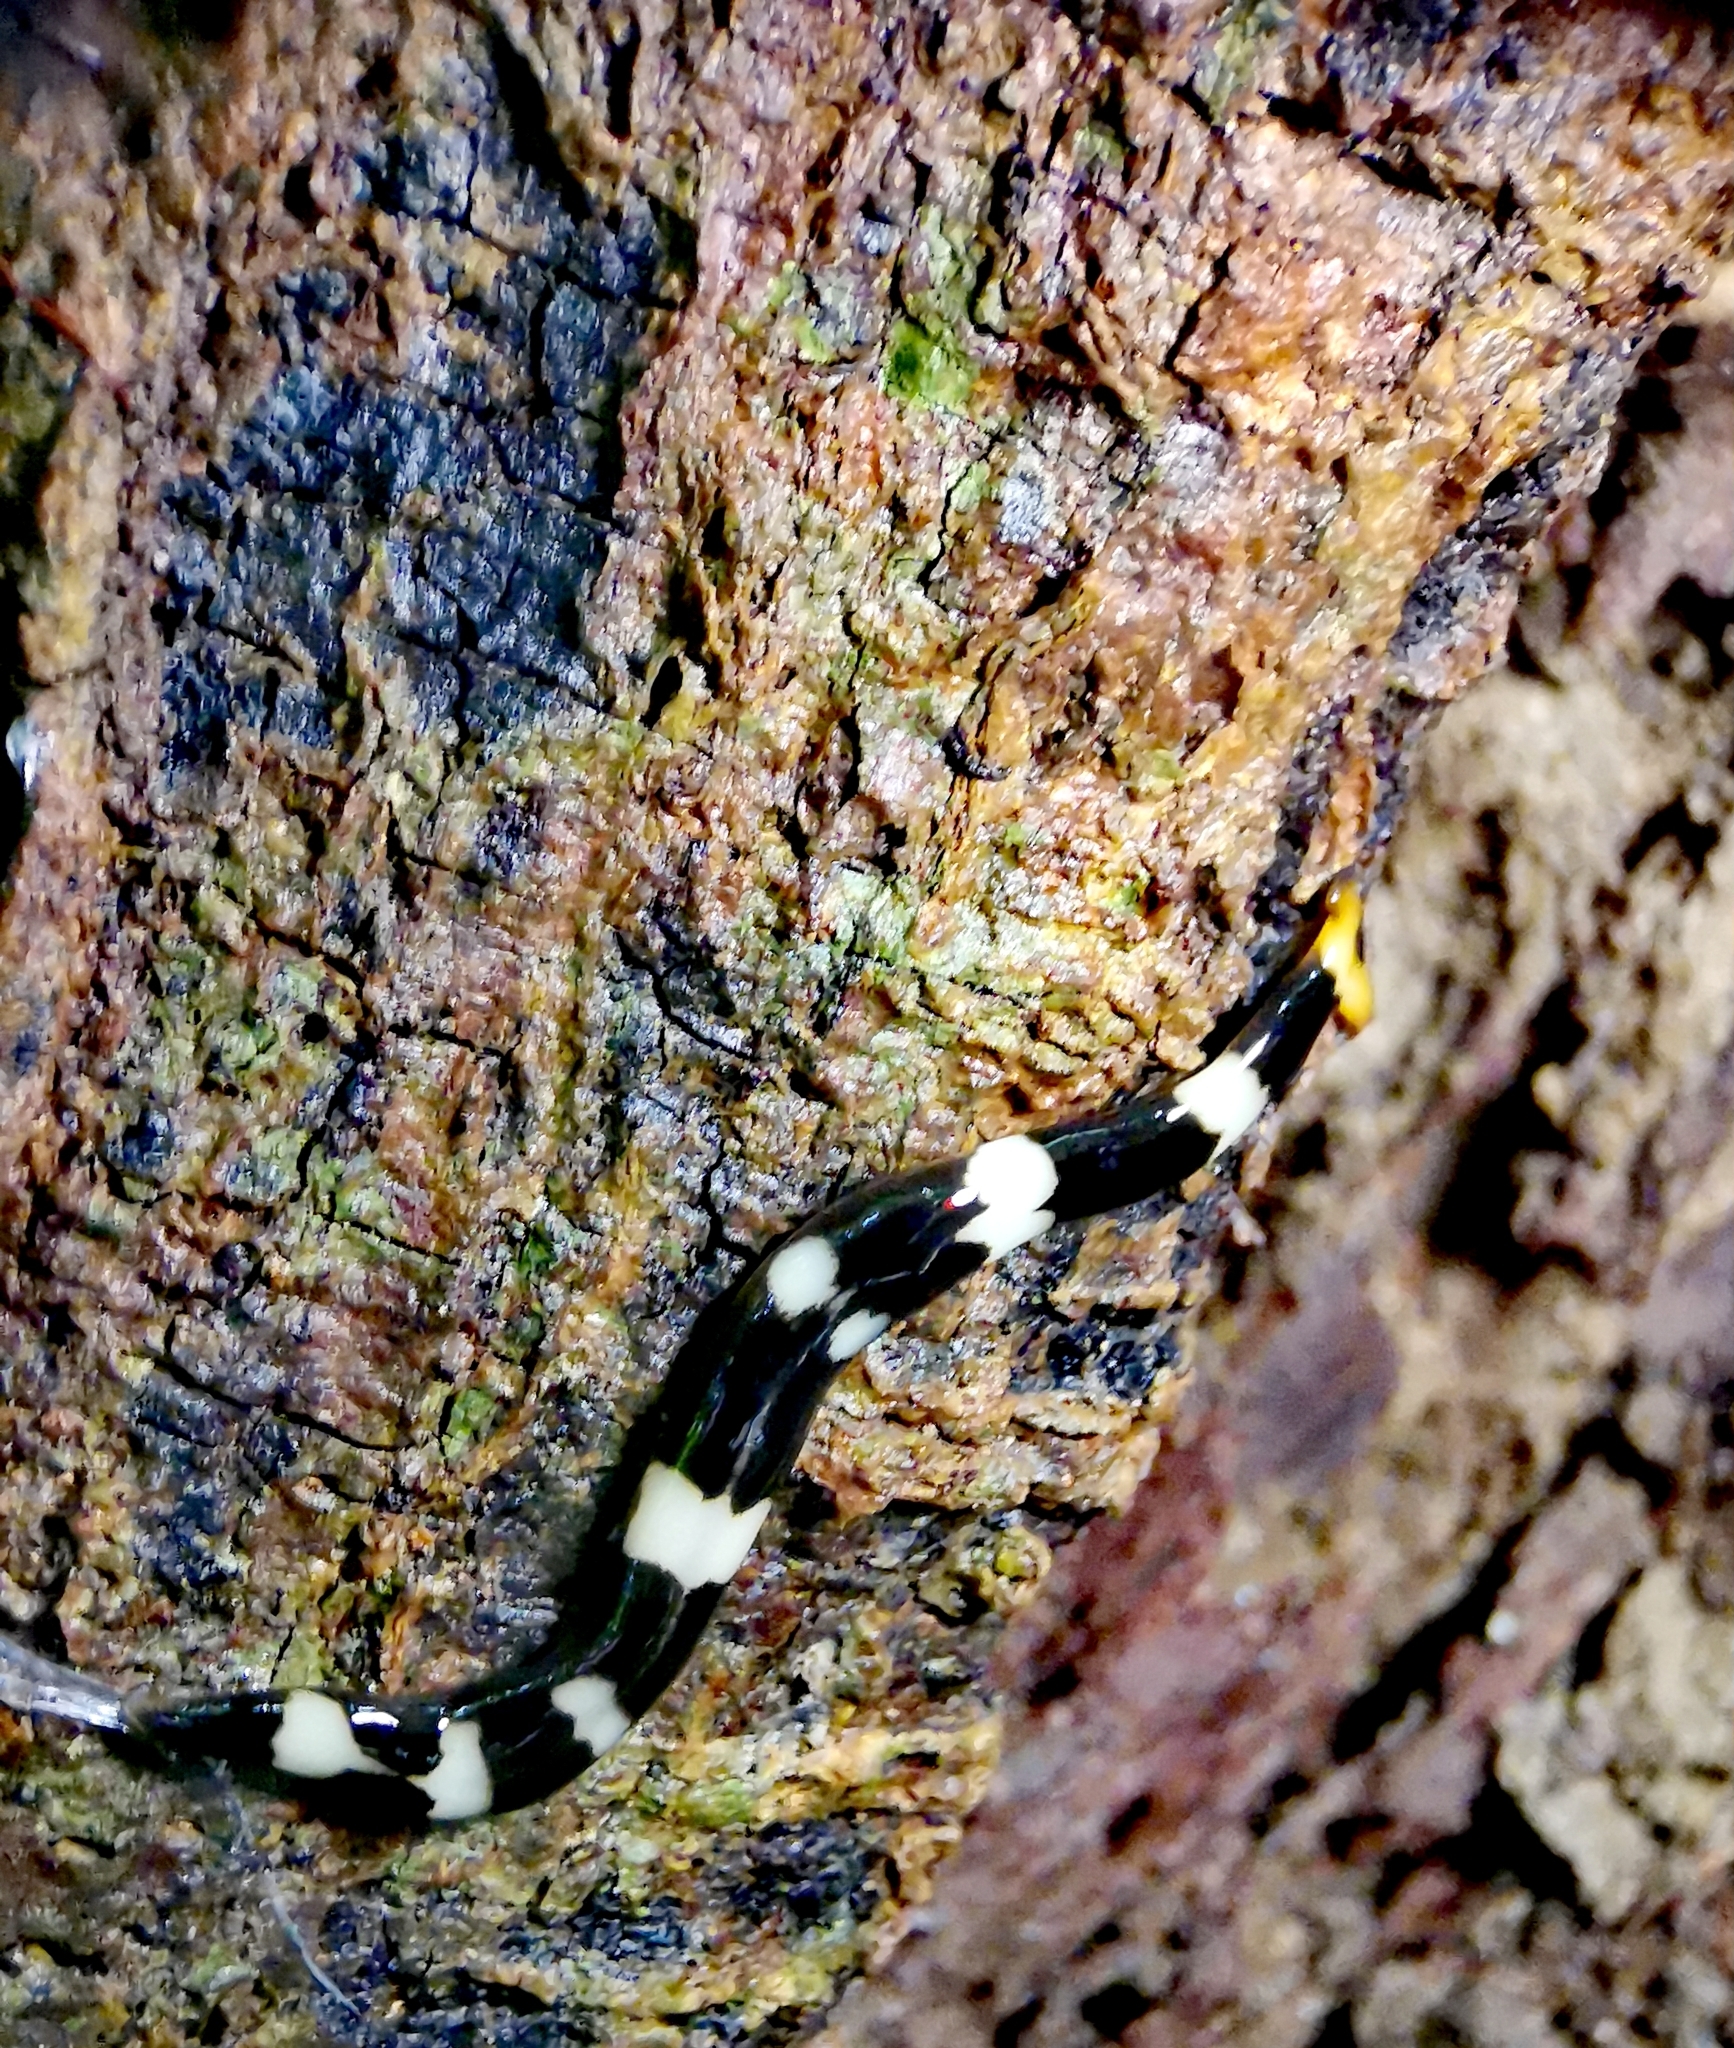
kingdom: Animalia
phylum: Platyhelminthes
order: Tricladida
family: Geoplanidae
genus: Diversibipalium
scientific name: Diversibipalium rauchi
